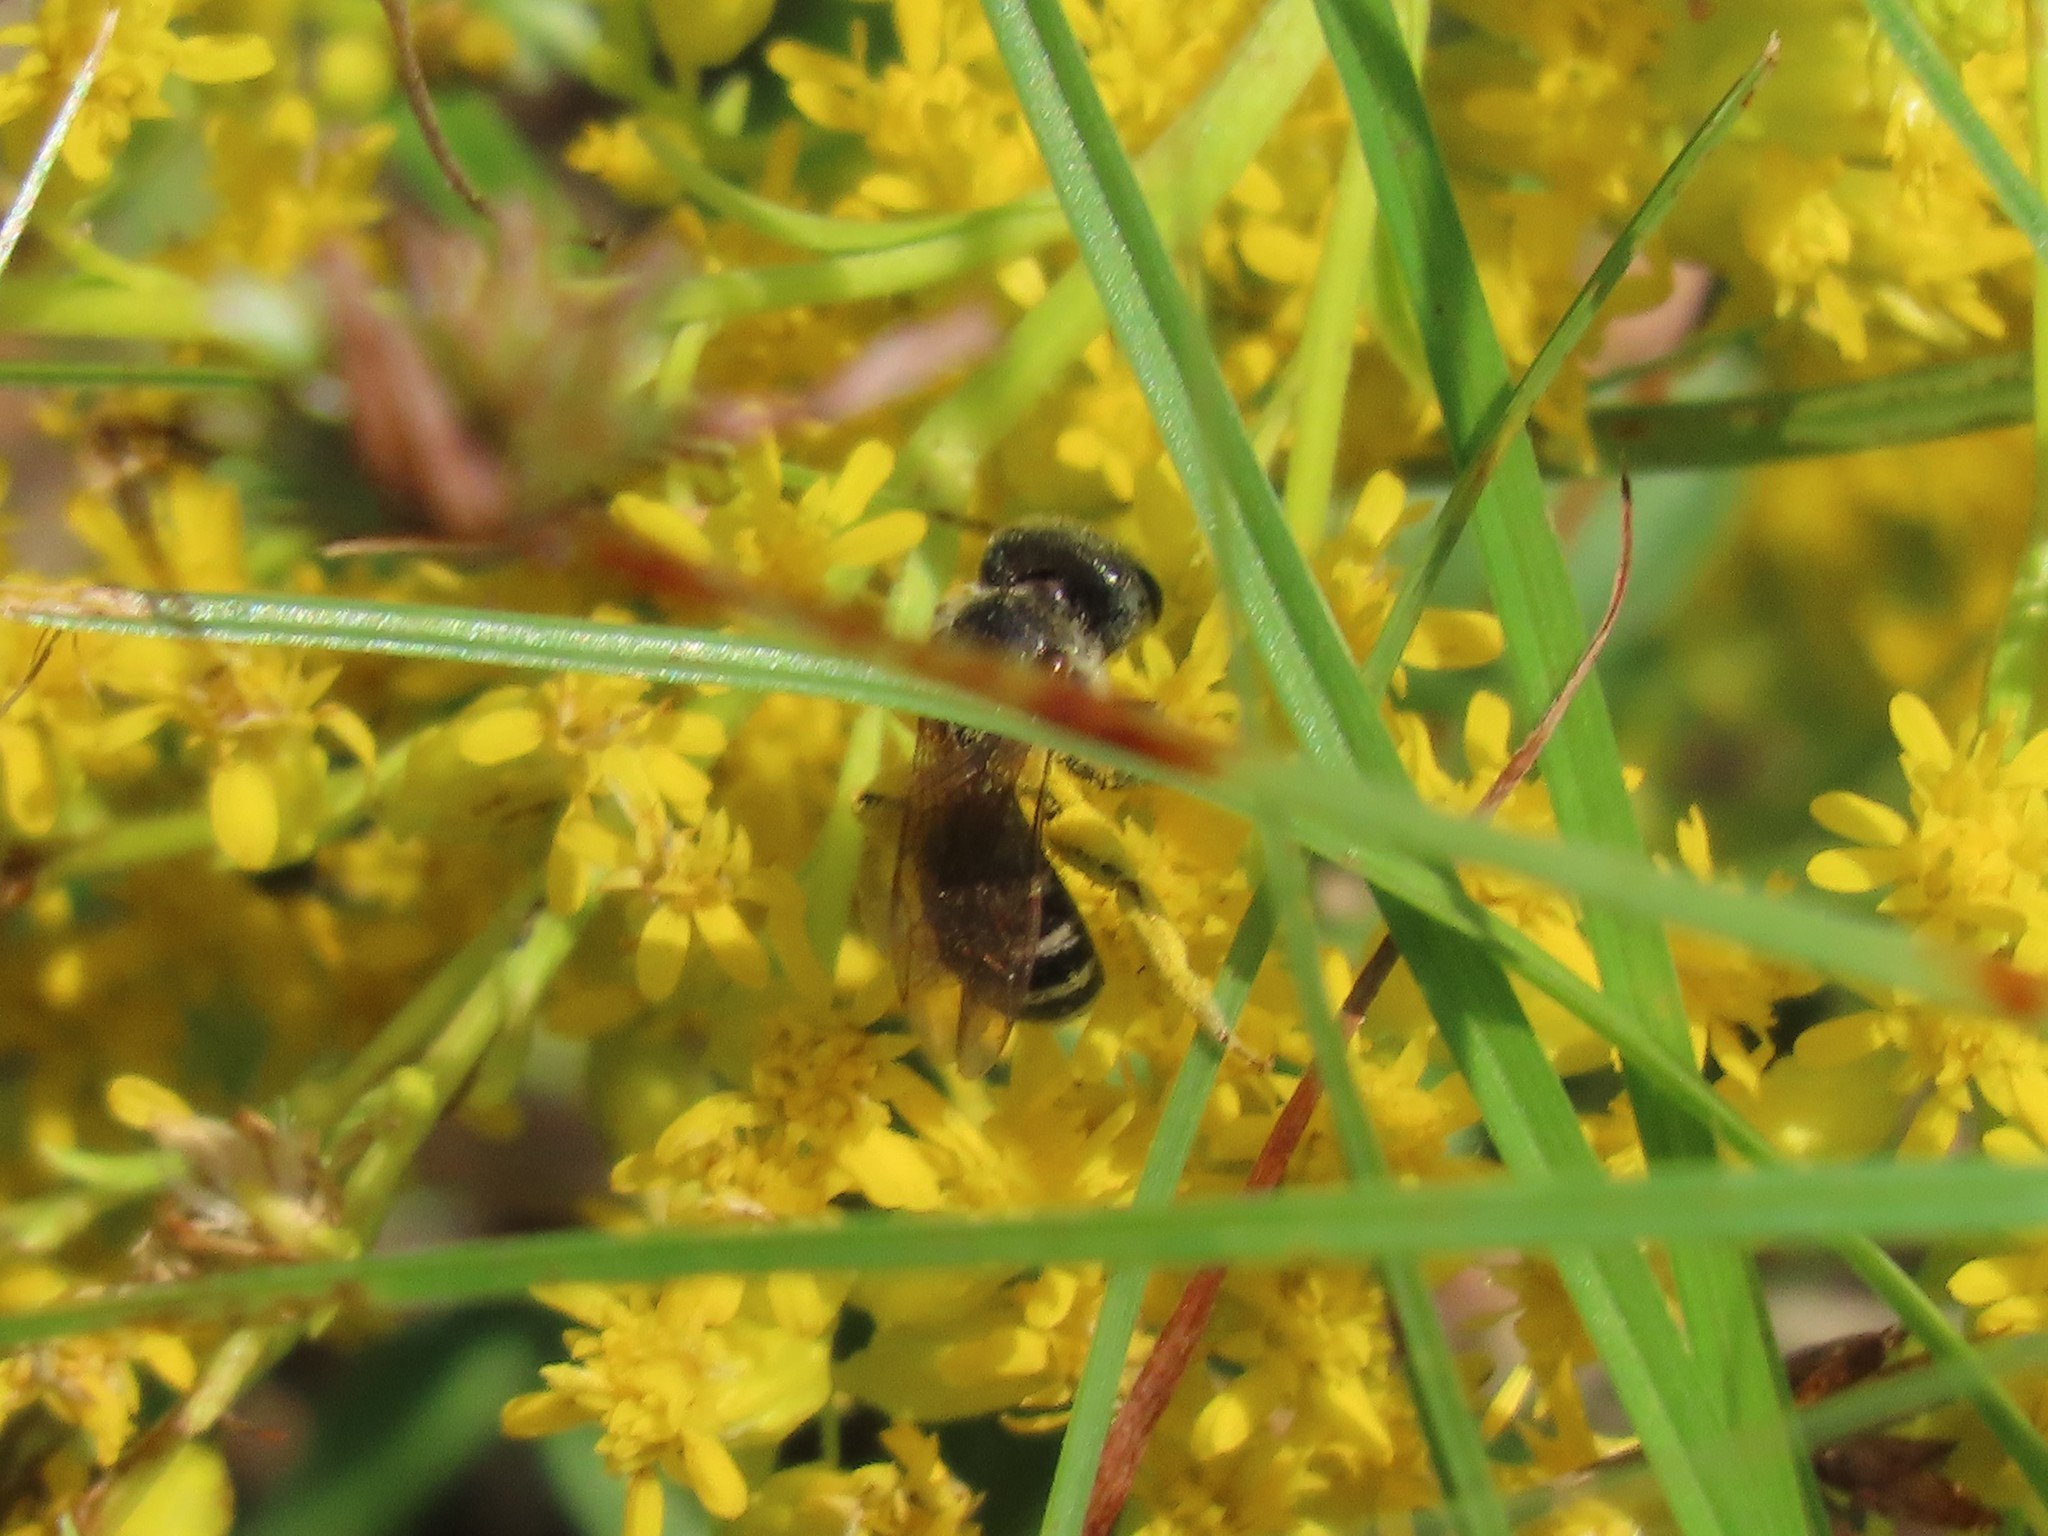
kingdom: Animalia
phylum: Arthropoda
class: Insecta
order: Hymenoptera
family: Halictidae
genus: Halictus
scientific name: Halictus ligatus
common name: Ligated furrow bee
